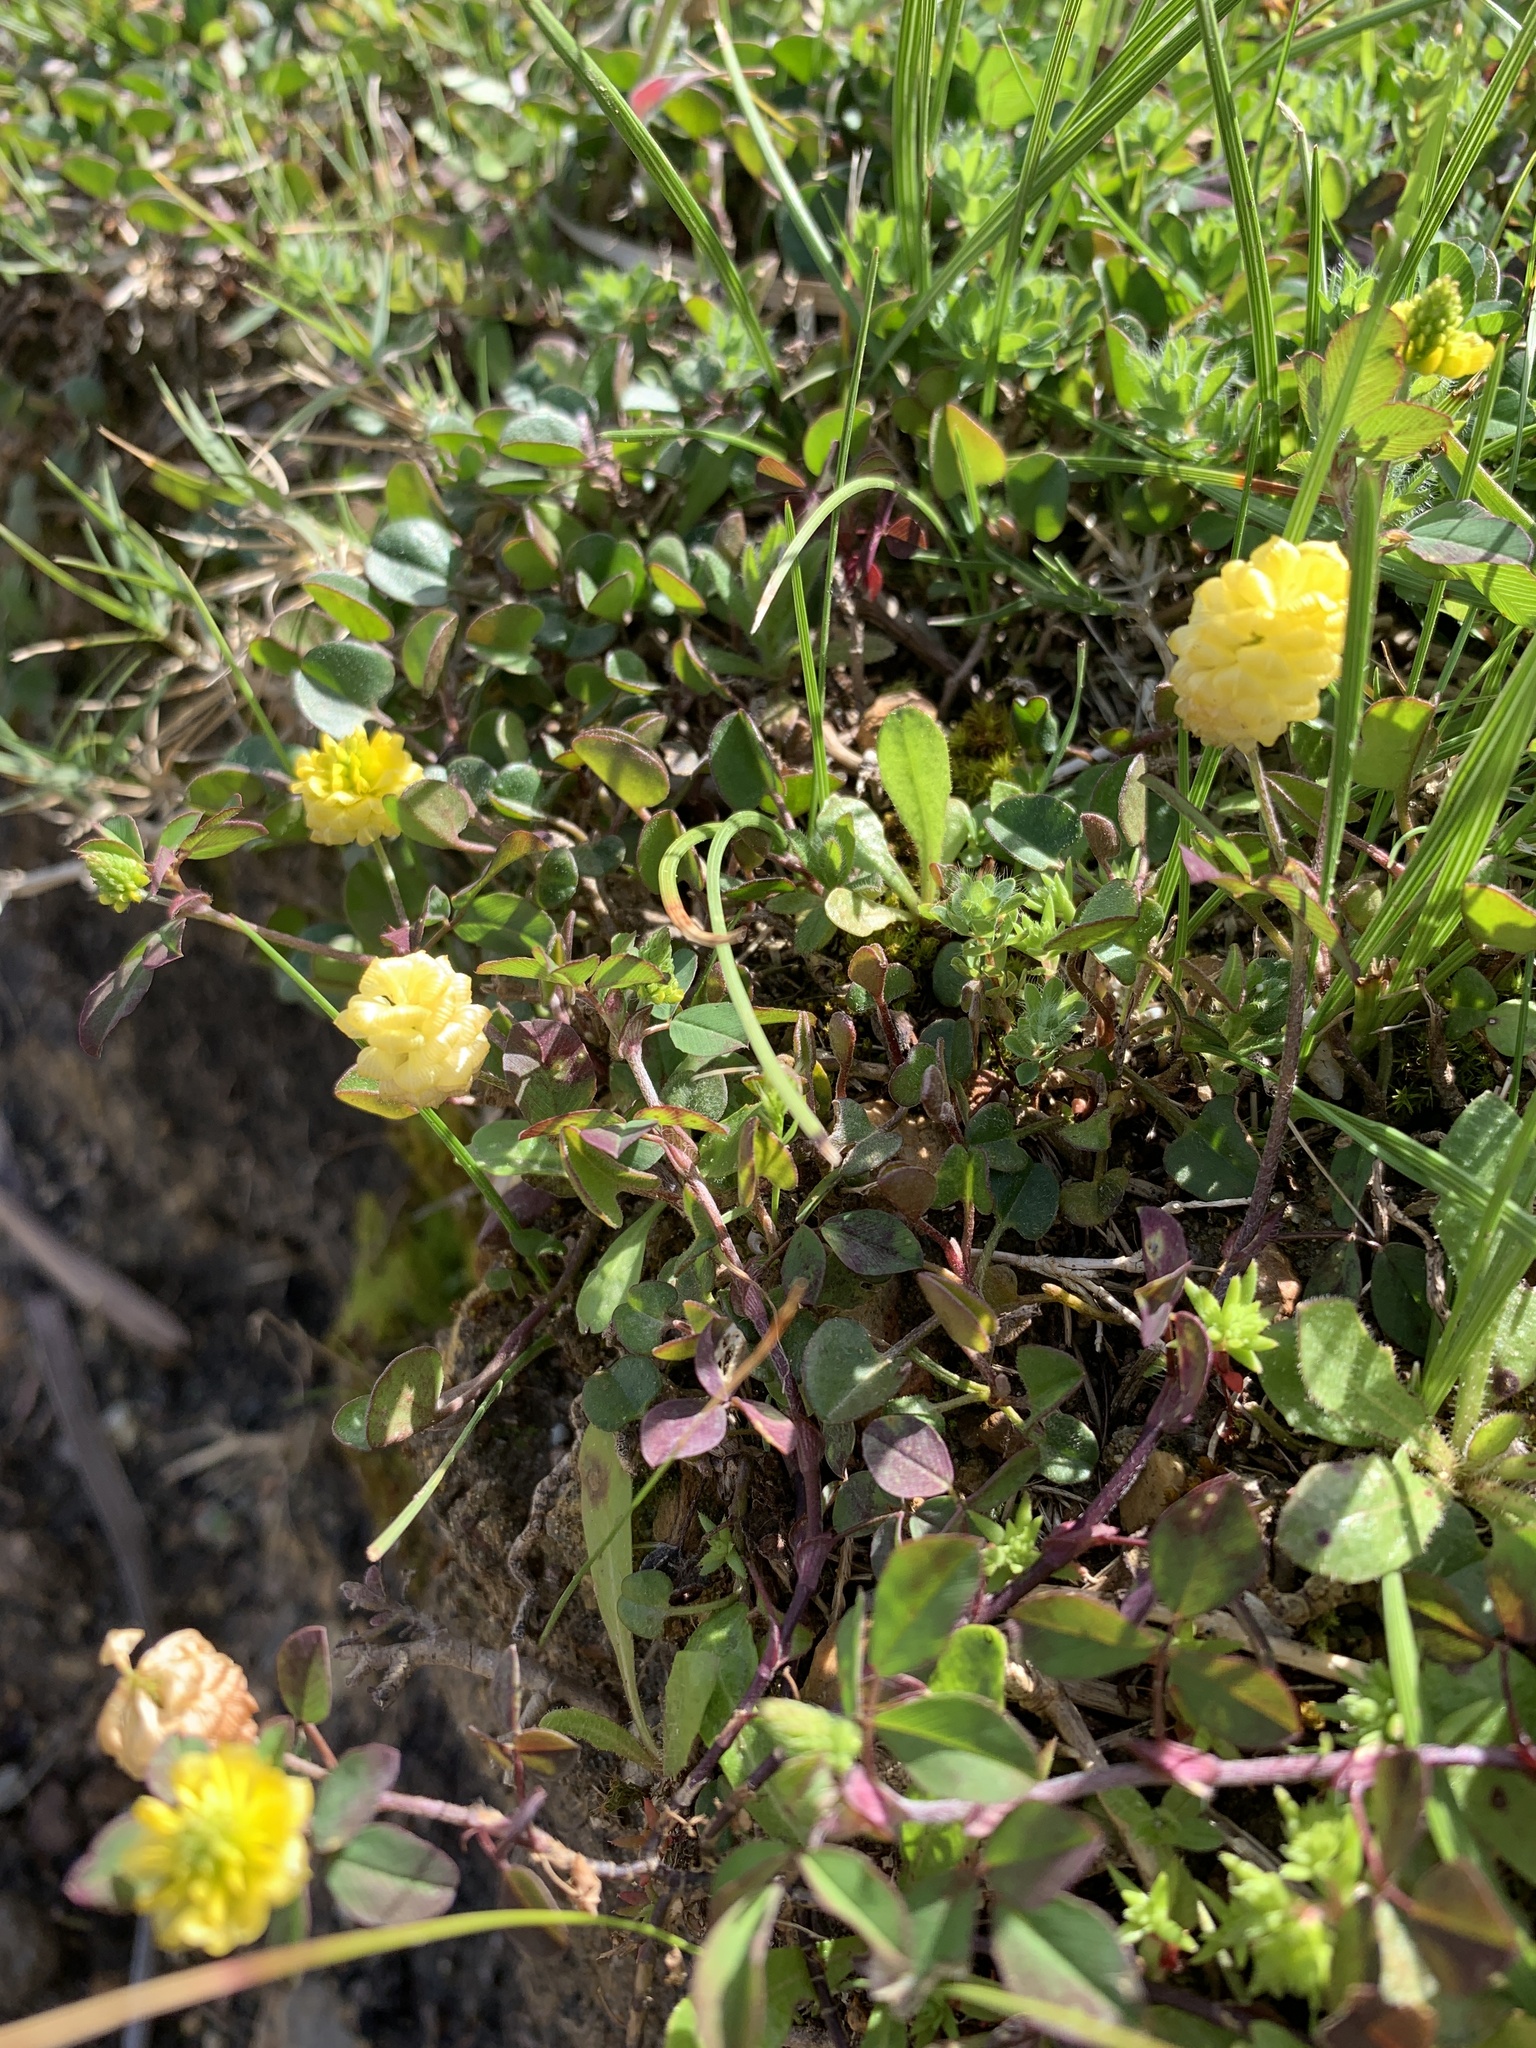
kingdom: Plantae
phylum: Tracheophyta
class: Magnoliopsida
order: Fabales
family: Fabaceae
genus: Trifolium
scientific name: Trifolium campestre
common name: Field clover
